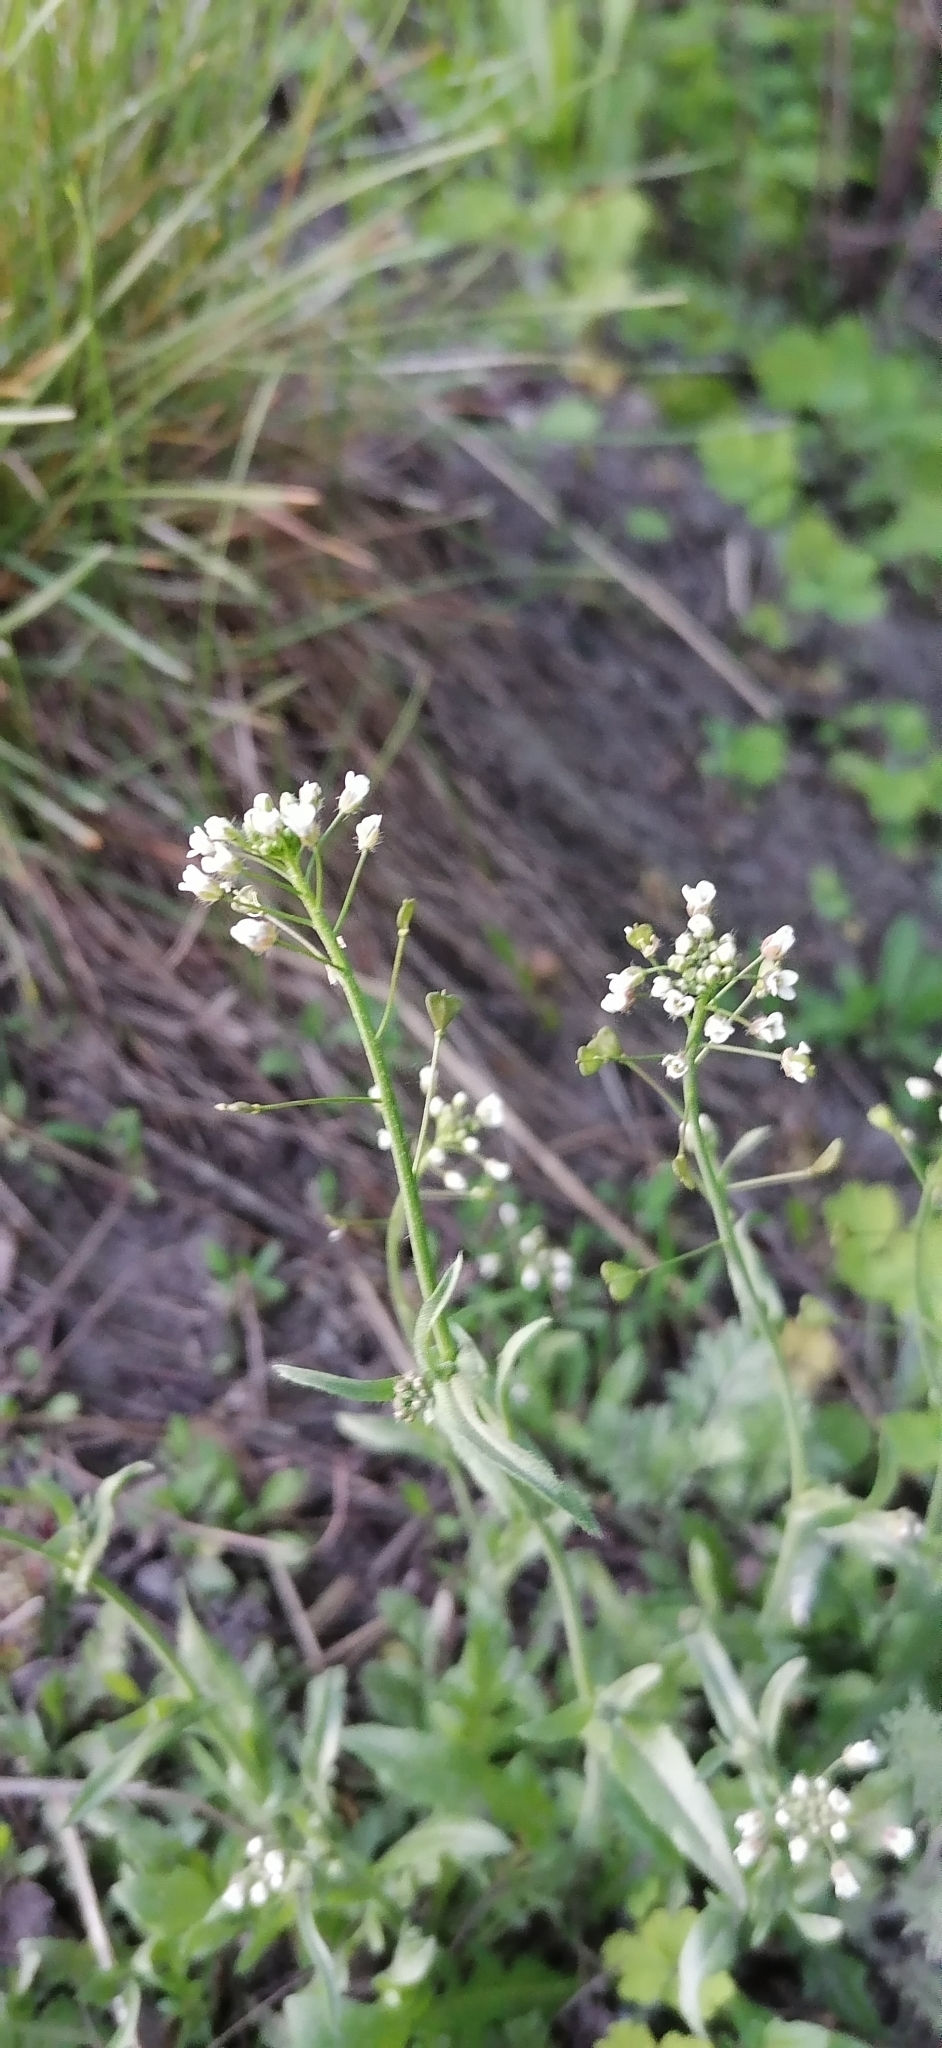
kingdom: Plantae
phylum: Tracheophyta
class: Magnoliopsida
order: Brassicales
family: Brassicaceae
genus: Capsella
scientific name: Capsella bursa-pastoris
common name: Shepherd's purse
